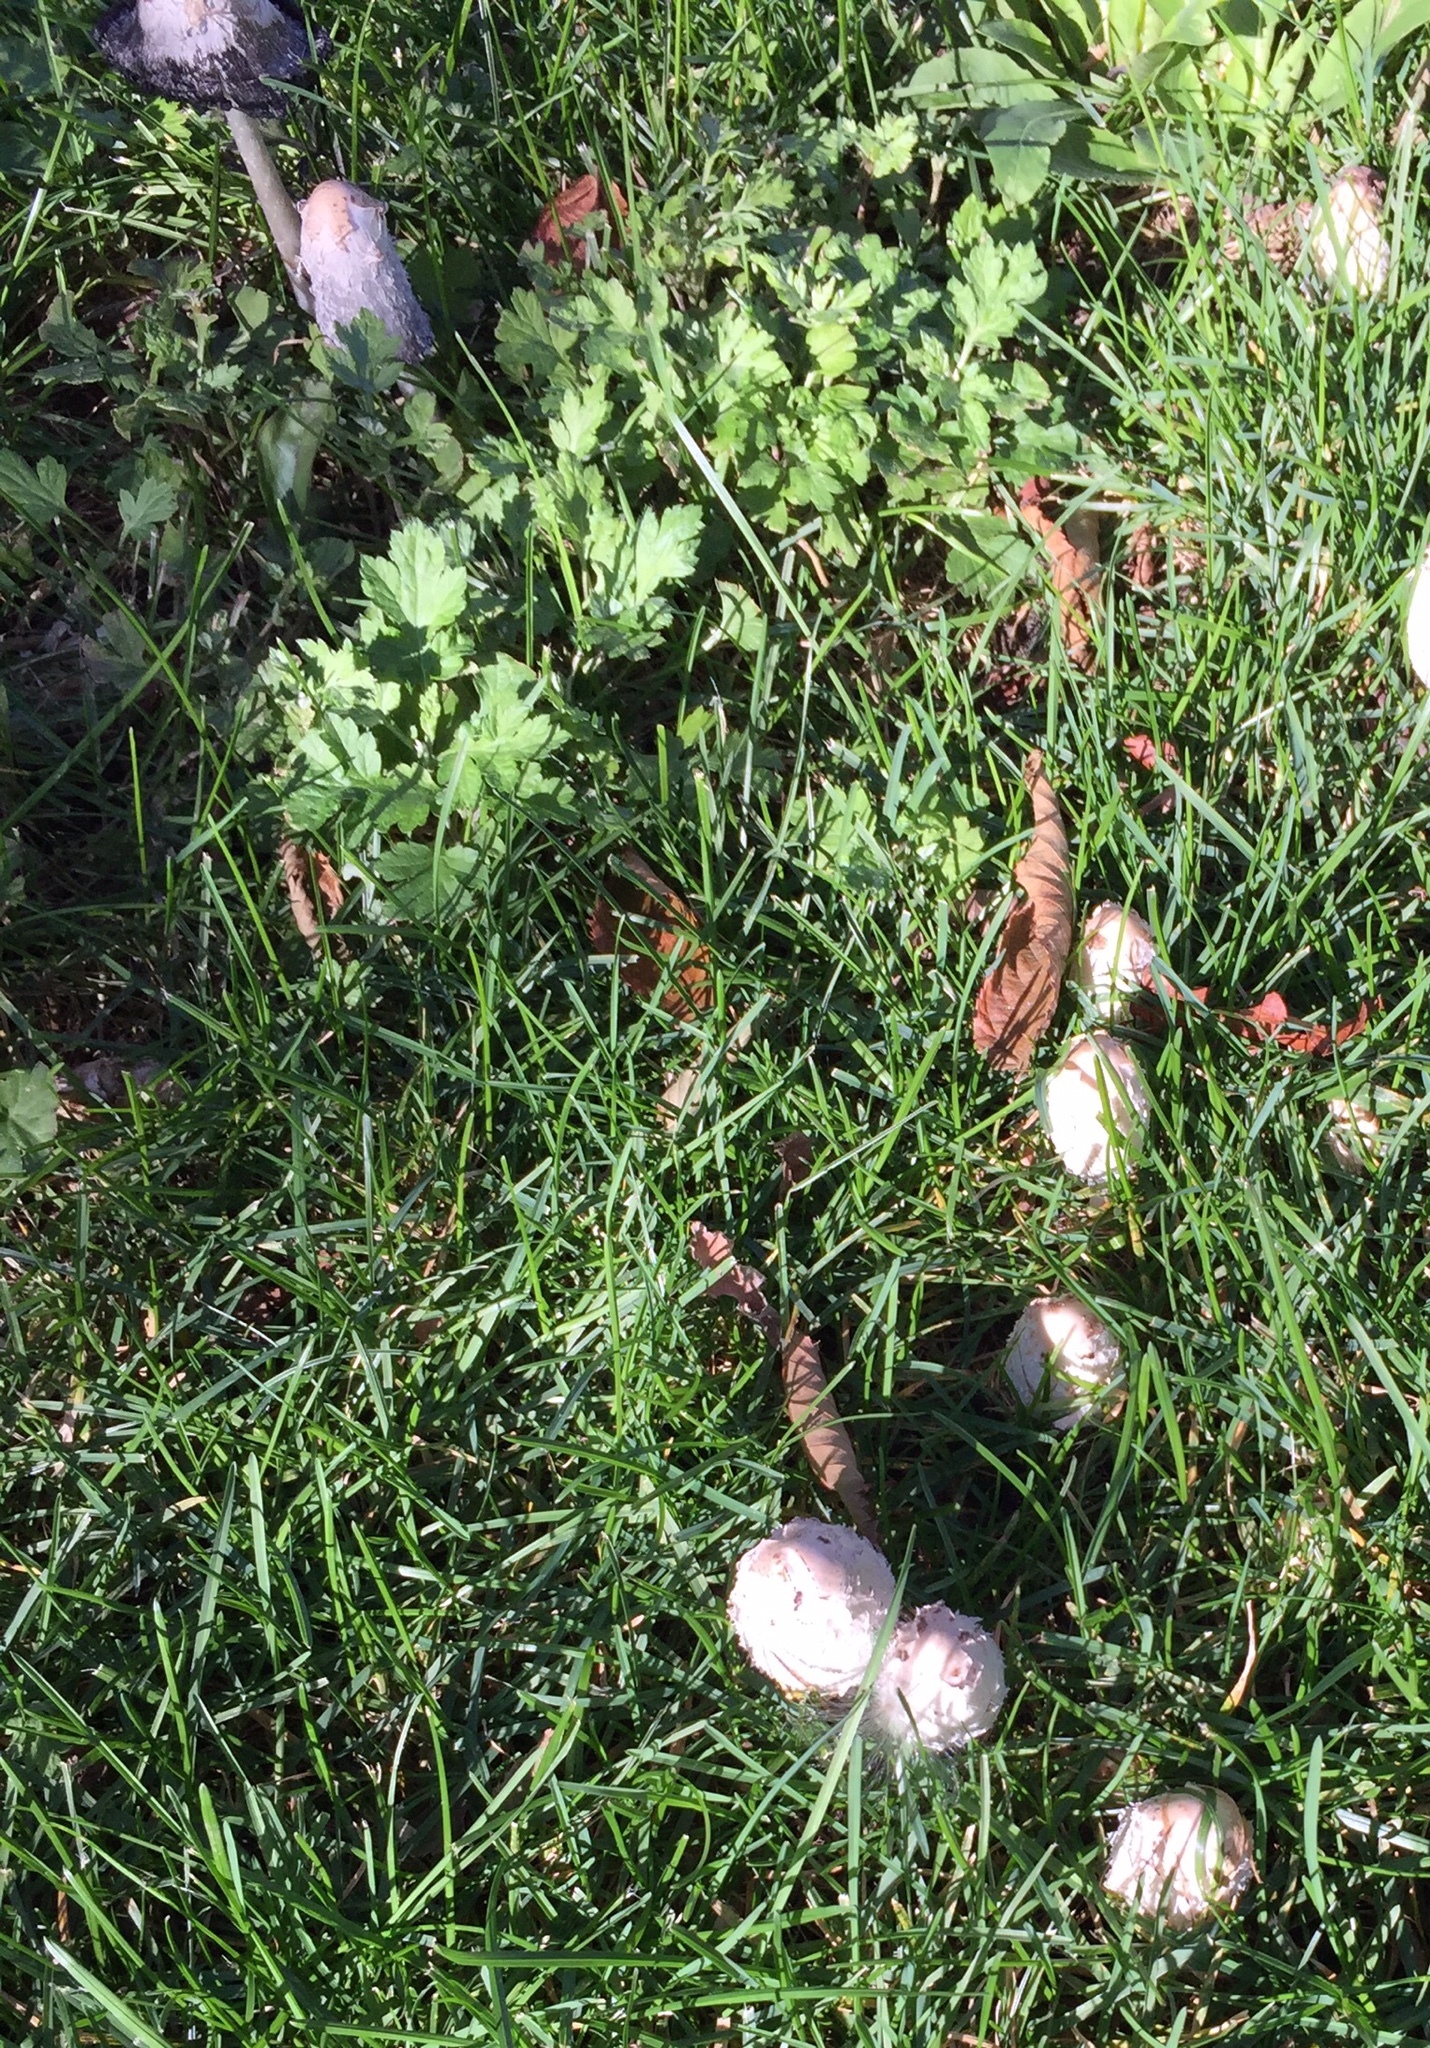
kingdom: Fungi
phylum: Basidiomycota
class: Agaricomycetes
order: Agaricales
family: Agaricaceae
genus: Coprinus
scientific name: Coprinus comatus
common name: Lawyer's wig
